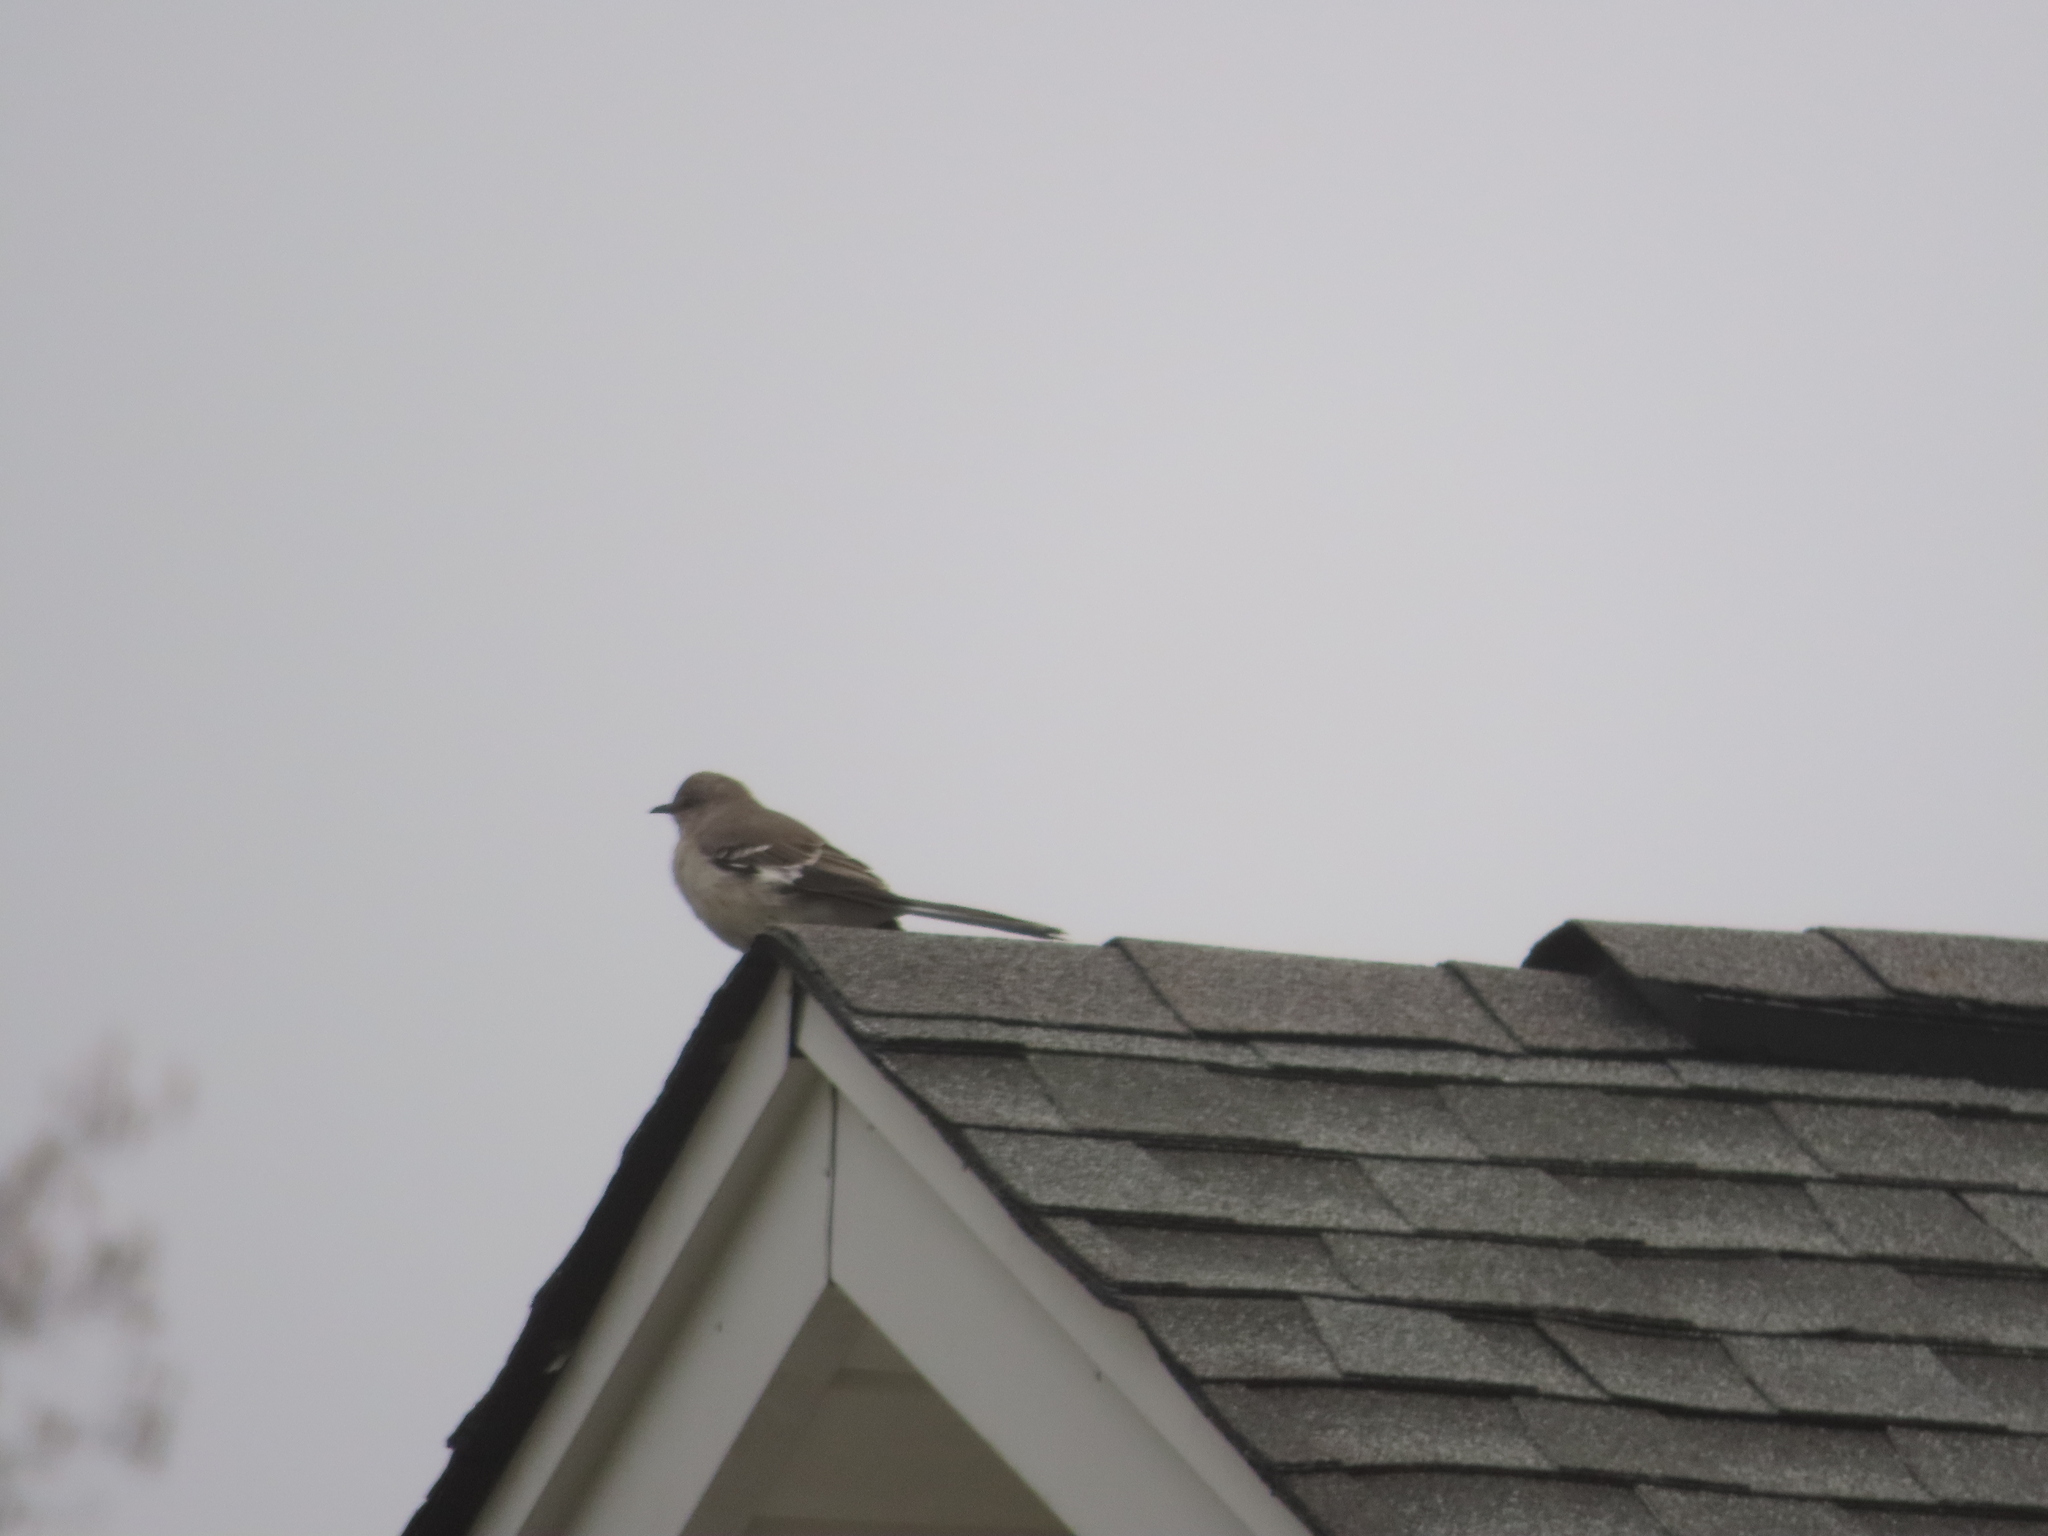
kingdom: Animalia
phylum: Chordata
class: Aves
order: Passeriformes
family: Mimidae
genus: Mimus
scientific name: Mimus polyglottos
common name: Northern mockingbird
